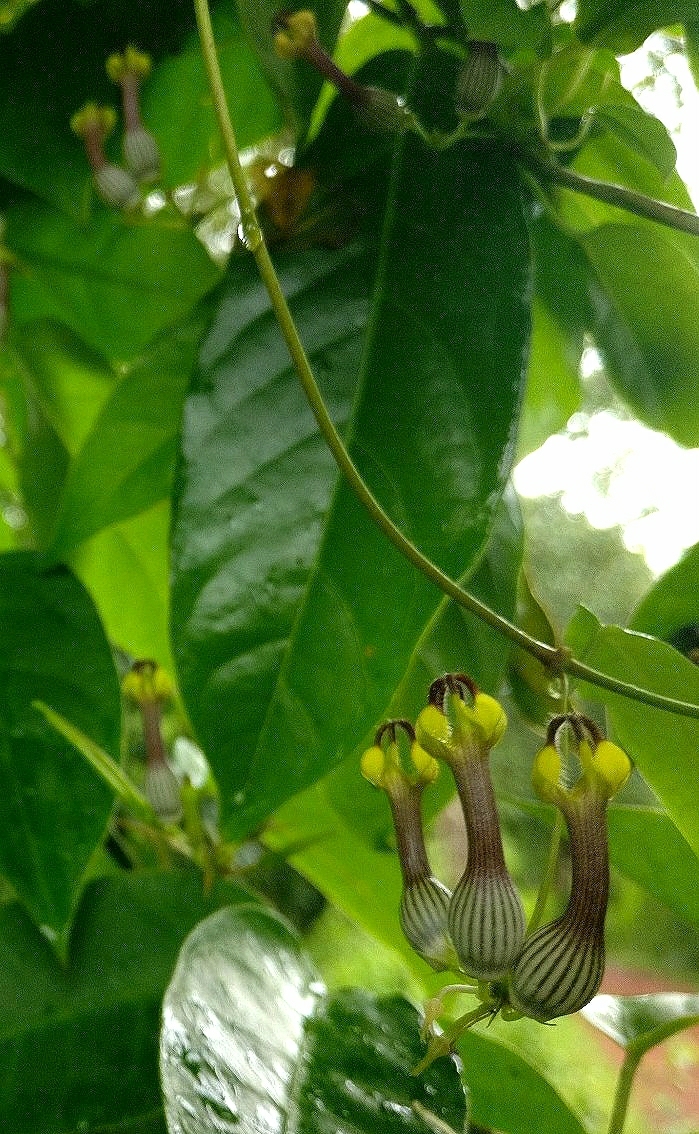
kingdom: Plantae
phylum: Tracheophyta
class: Magnoliopsida
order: Gentianales
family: Apocynaceae
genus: Ceropegia
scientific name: Ceropegia candelabrum
